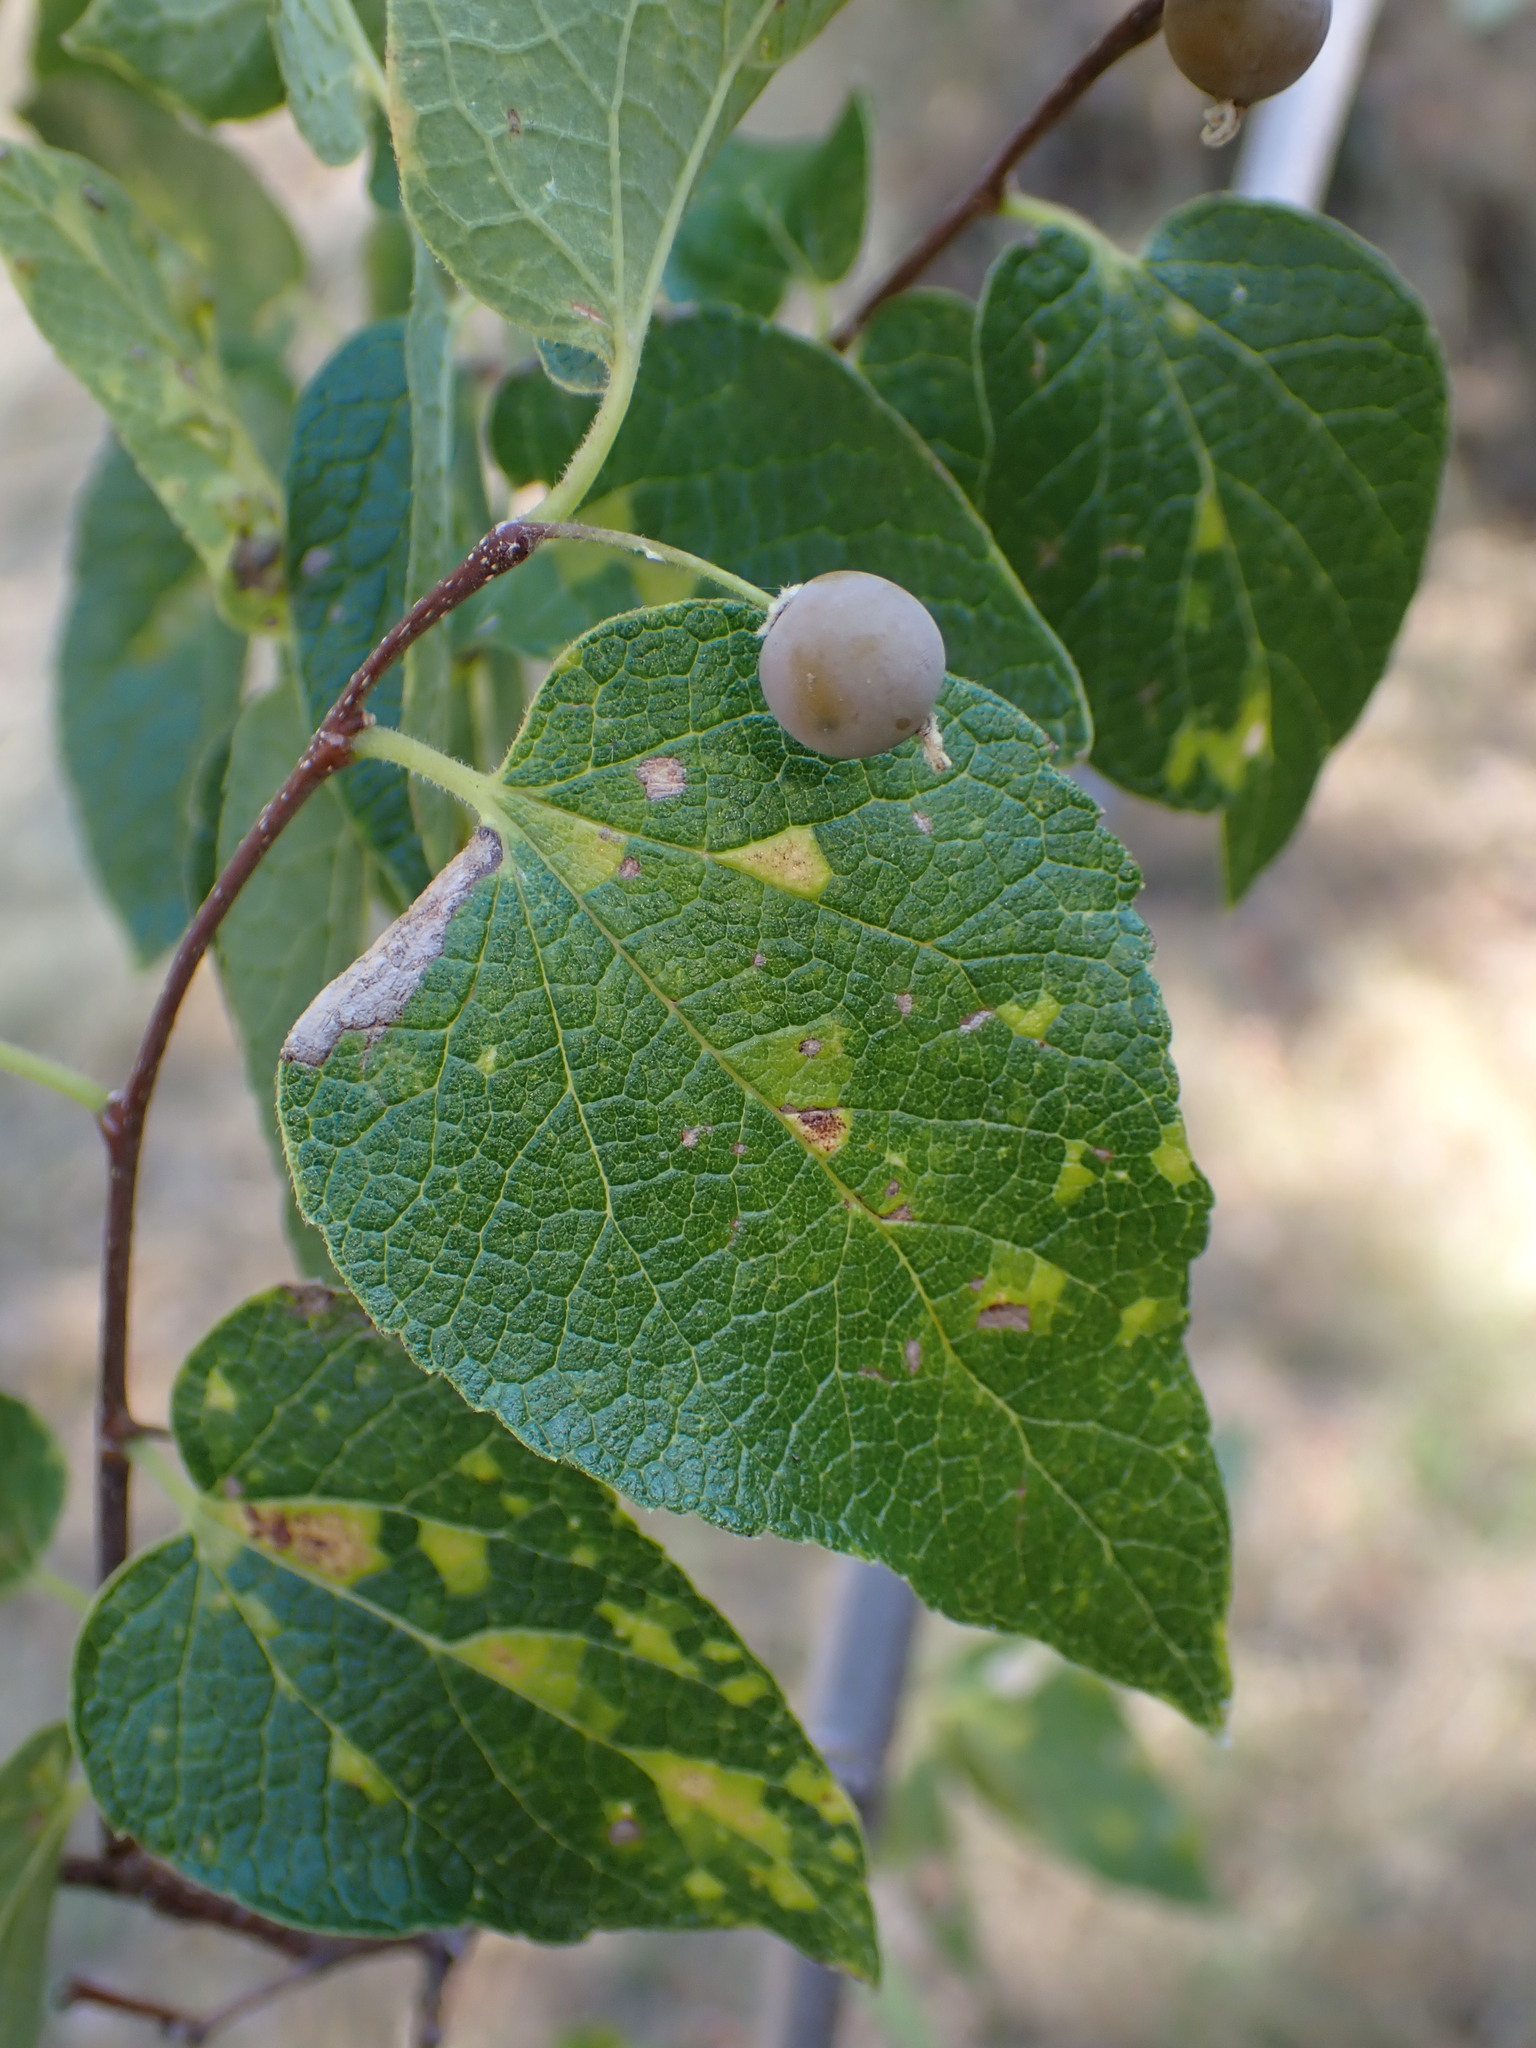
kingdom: Plantae
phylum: Tracheophyta
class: Magnoliopsida
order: Rosales
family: Cannabaceae
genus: Celtis
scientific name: Celtis reticulata
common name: Netleaf hackberry
